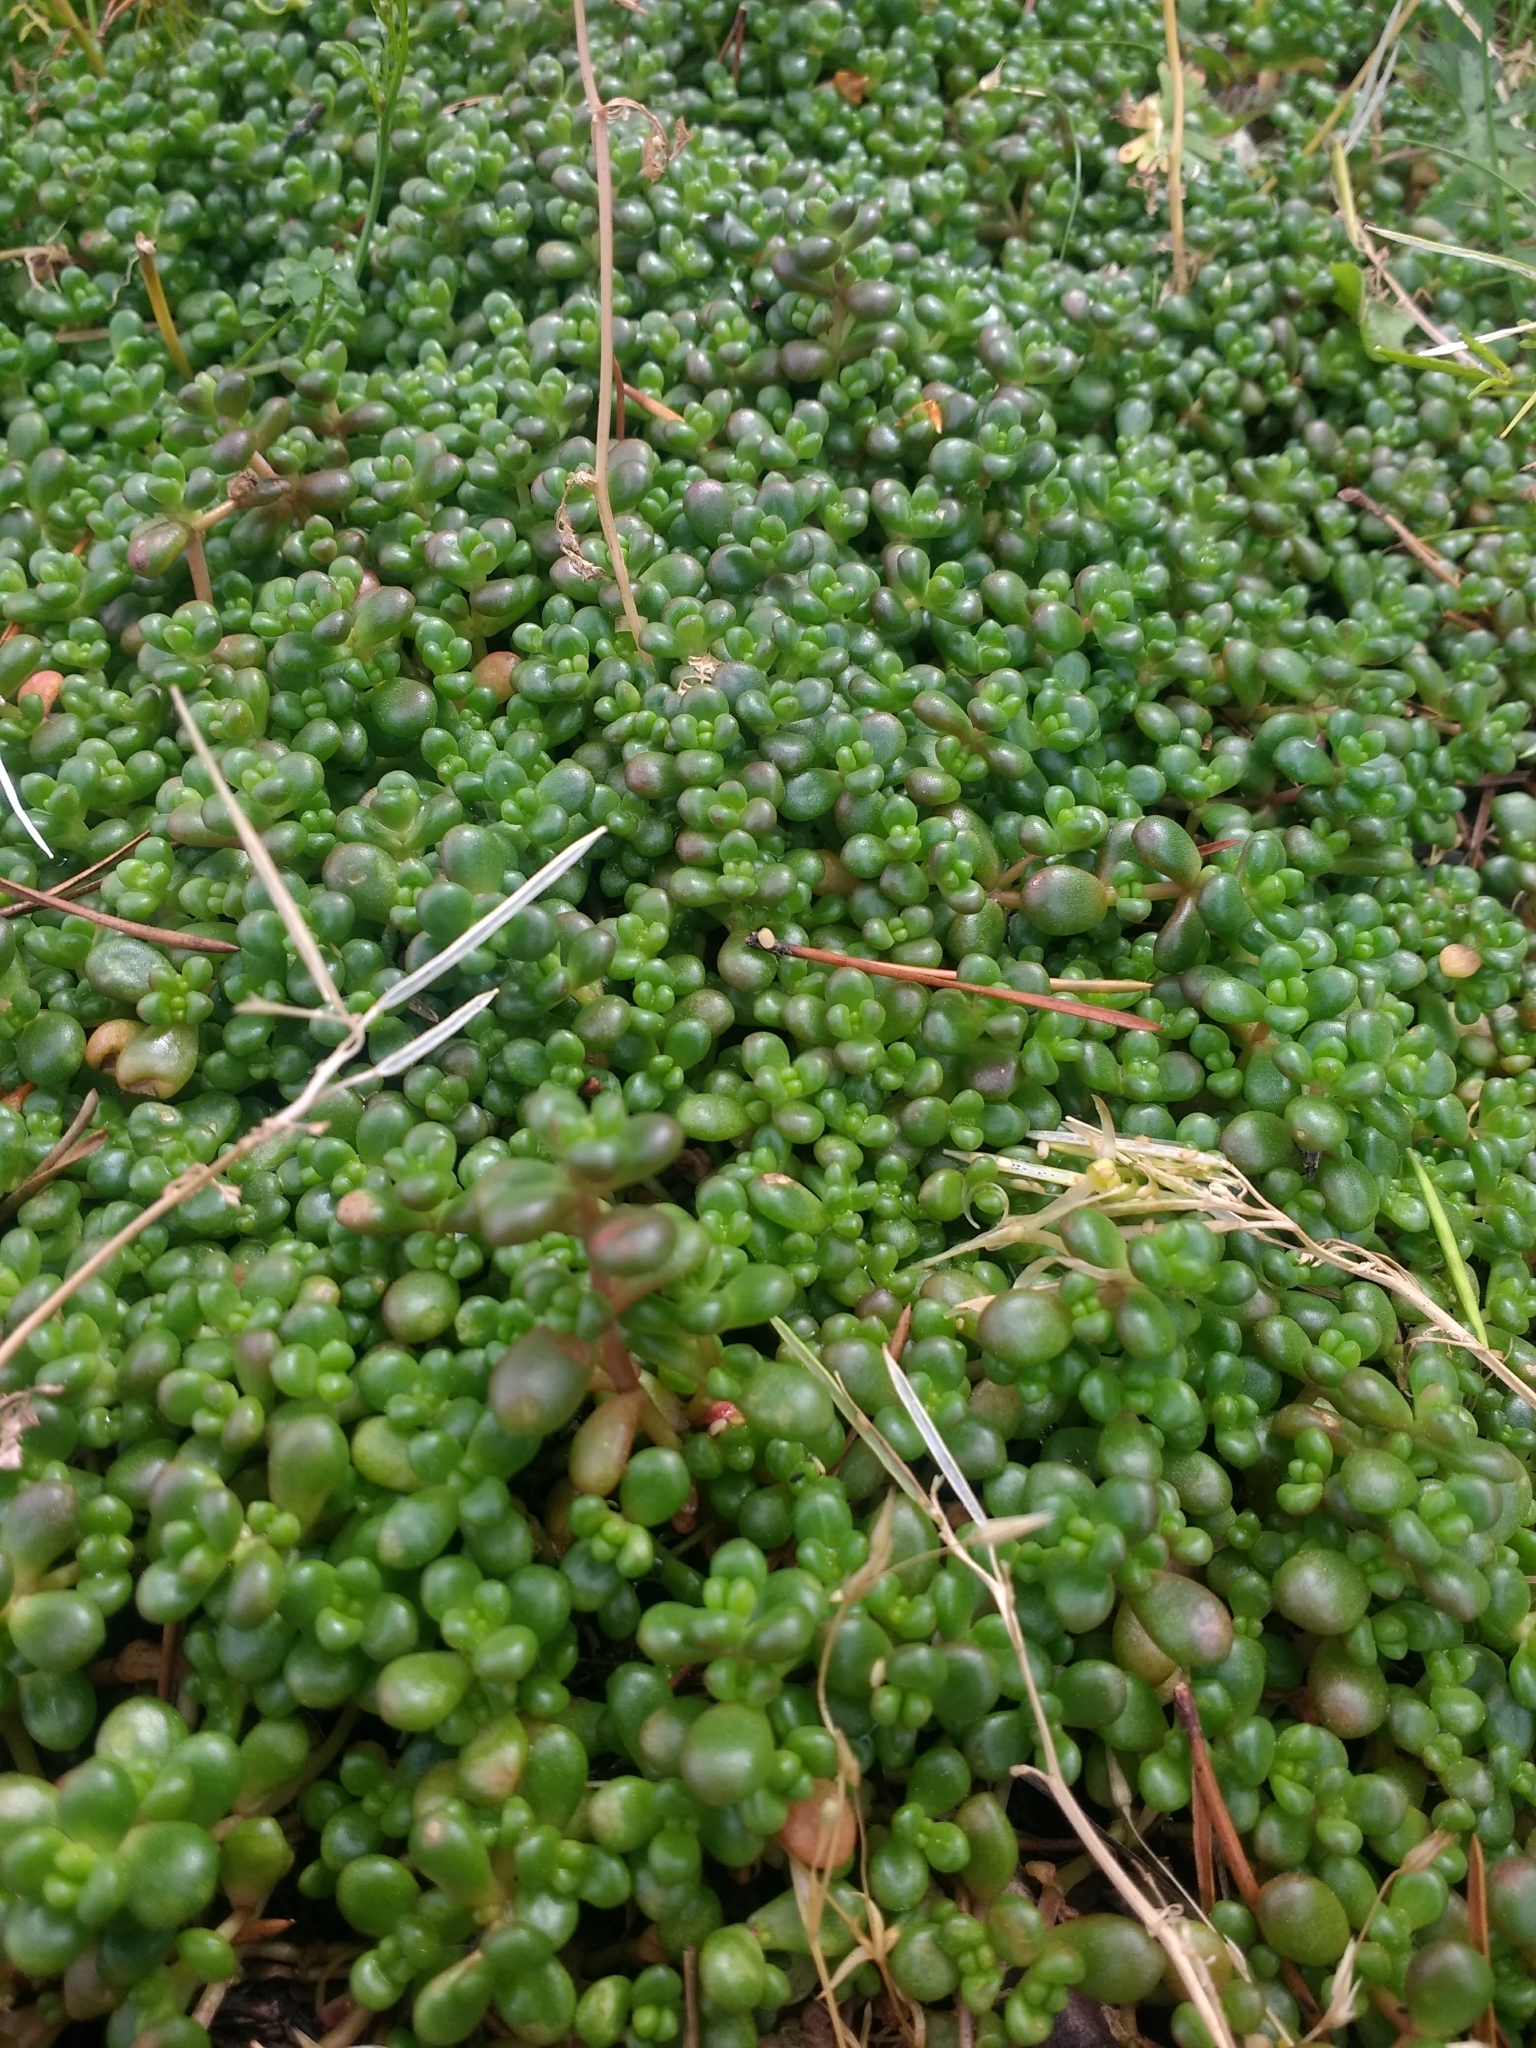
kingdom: Plantae
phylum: Tracheophyta
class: Magnoliopsida
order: Saxifragales
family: Crassulaceae
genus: Sedum
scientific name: Sedum divergens
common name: Cascade stonecrop
